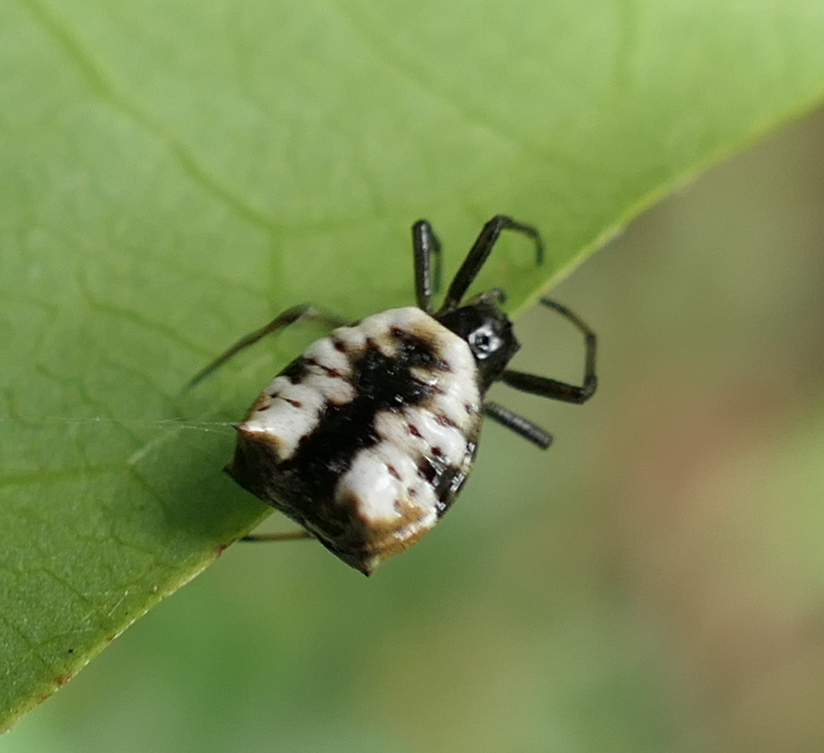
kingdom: Animalia
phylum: Arthropoda
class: Arachnida
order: Araneae
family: Araneidae
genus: Micrathena
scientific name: Micrathena patruelis
